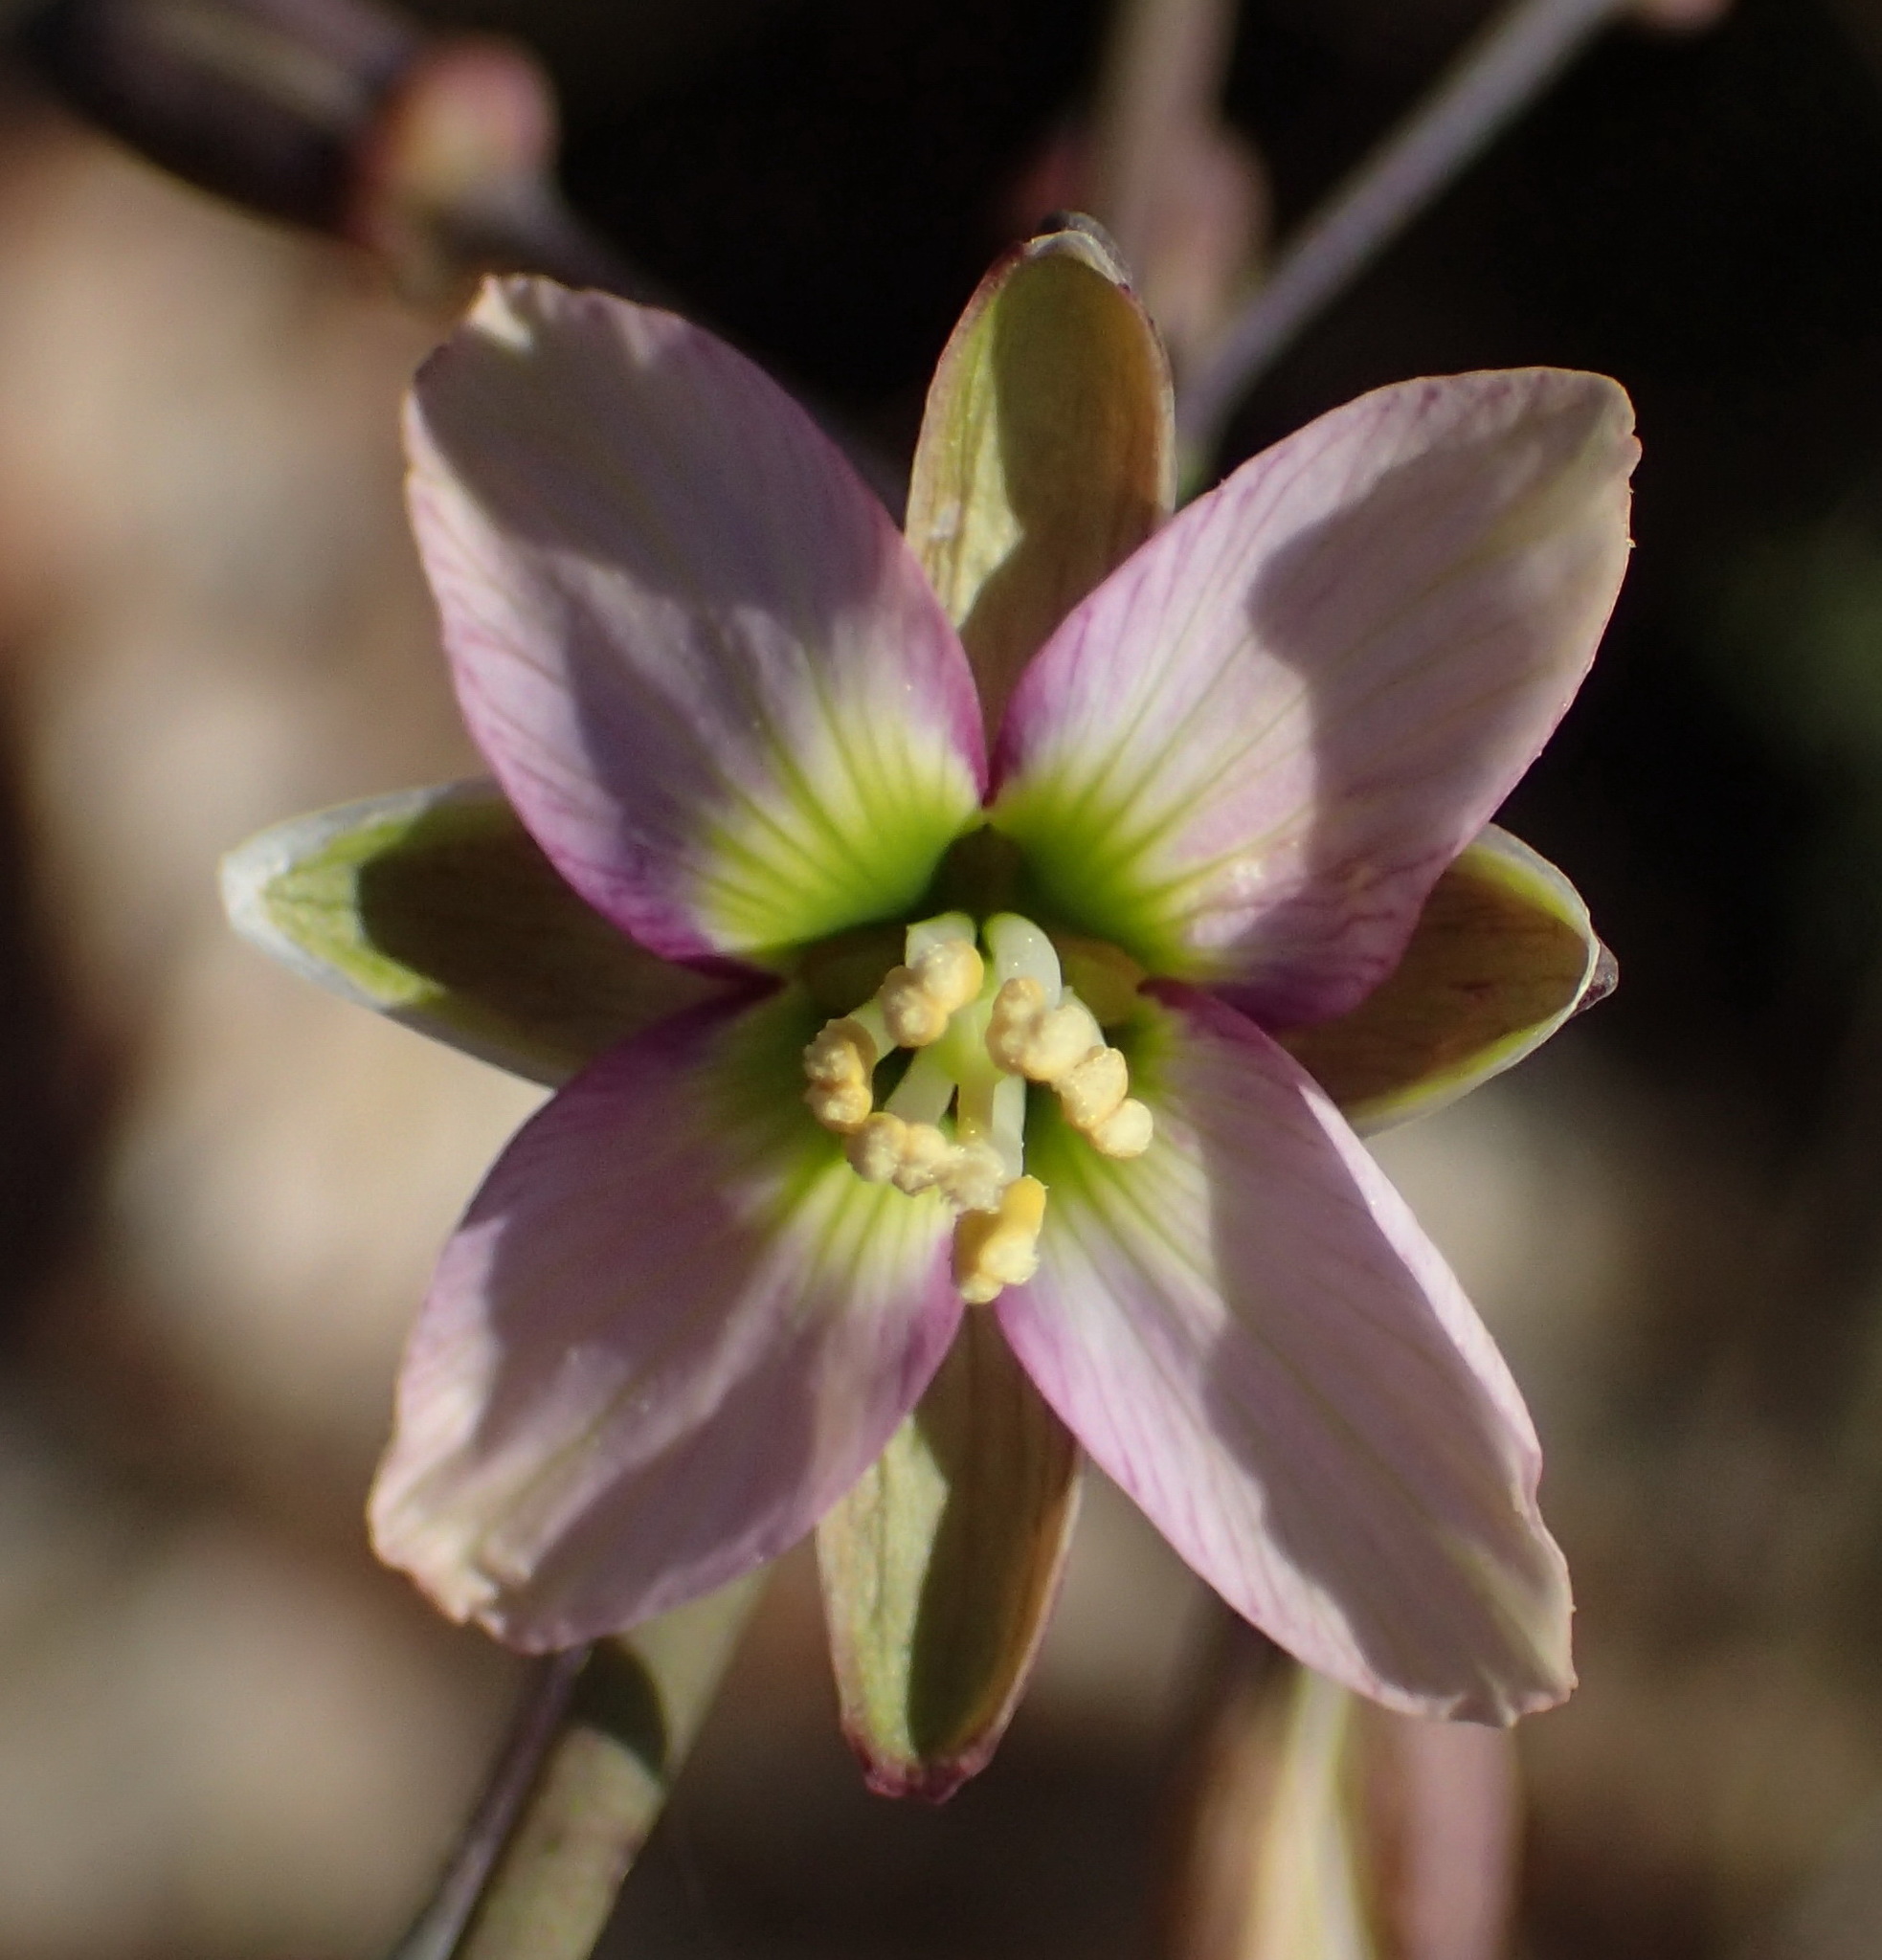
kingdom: Plantae
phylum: Tracheophyta
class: Magnoliopsida
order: Brassicales
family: Brassicaceae
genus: Heliophila
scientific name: Heliophila cornuta
